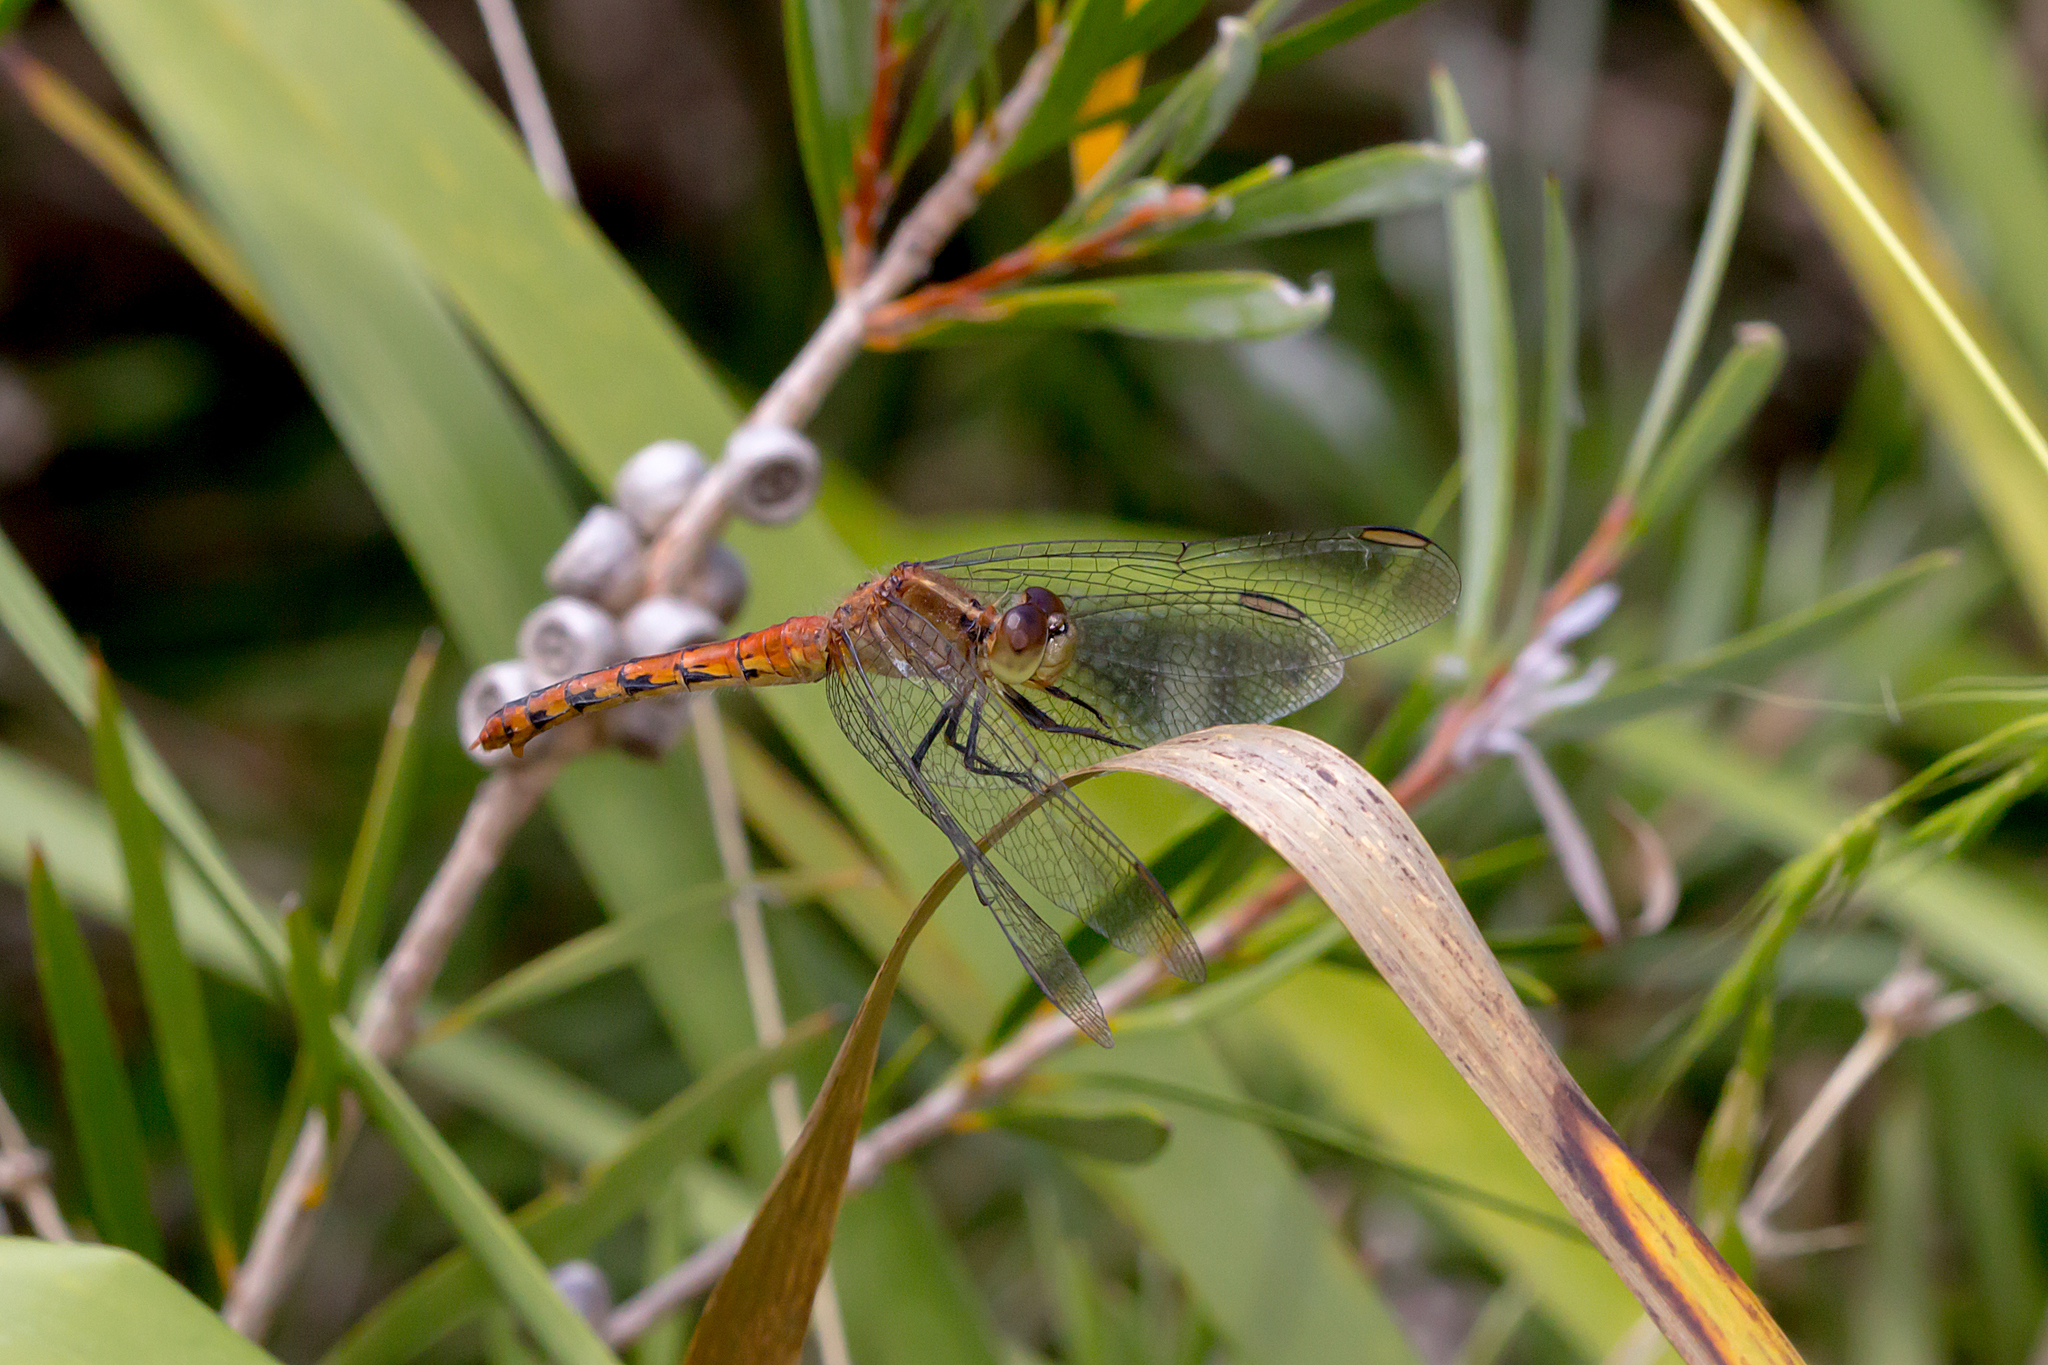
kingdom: Animalia
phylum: Arthropoda
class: Insecta
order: Odonata
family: Libellulidae
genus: Diplacodes
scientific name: Diplacodes melanopsis
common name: Black-faced percher
